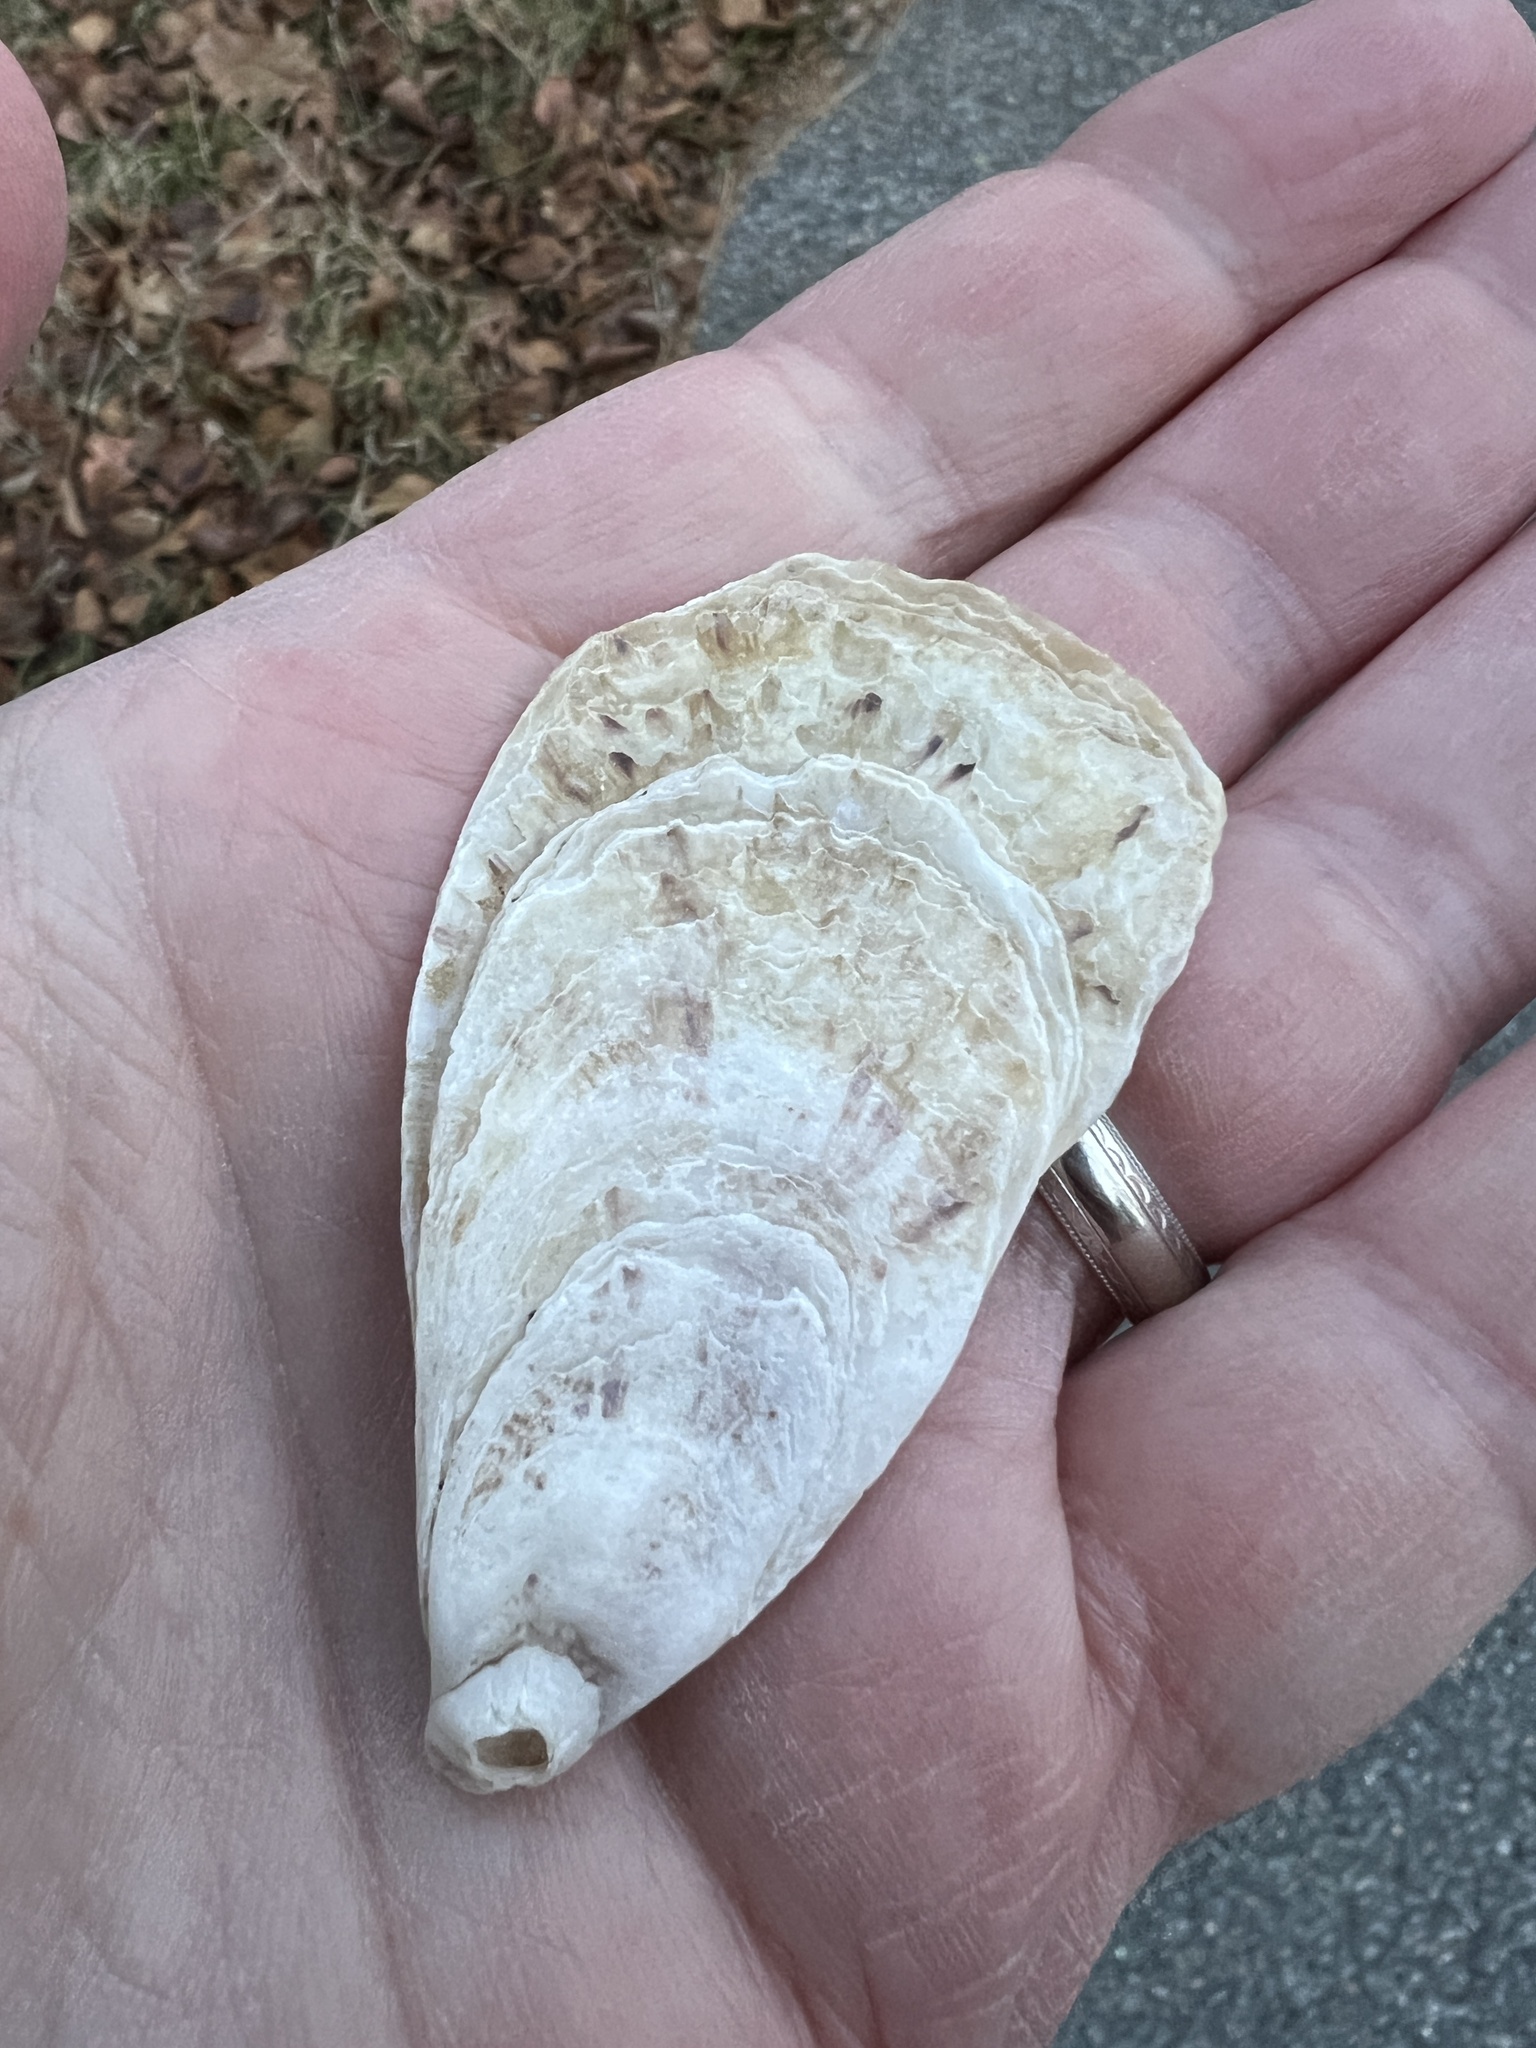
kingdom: Animalia
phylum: Mollusca
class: Bivalvia
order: Ostreida
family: Ostreidae
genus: Crassostrea
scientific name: Crassostrea virginica
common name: American oyster
